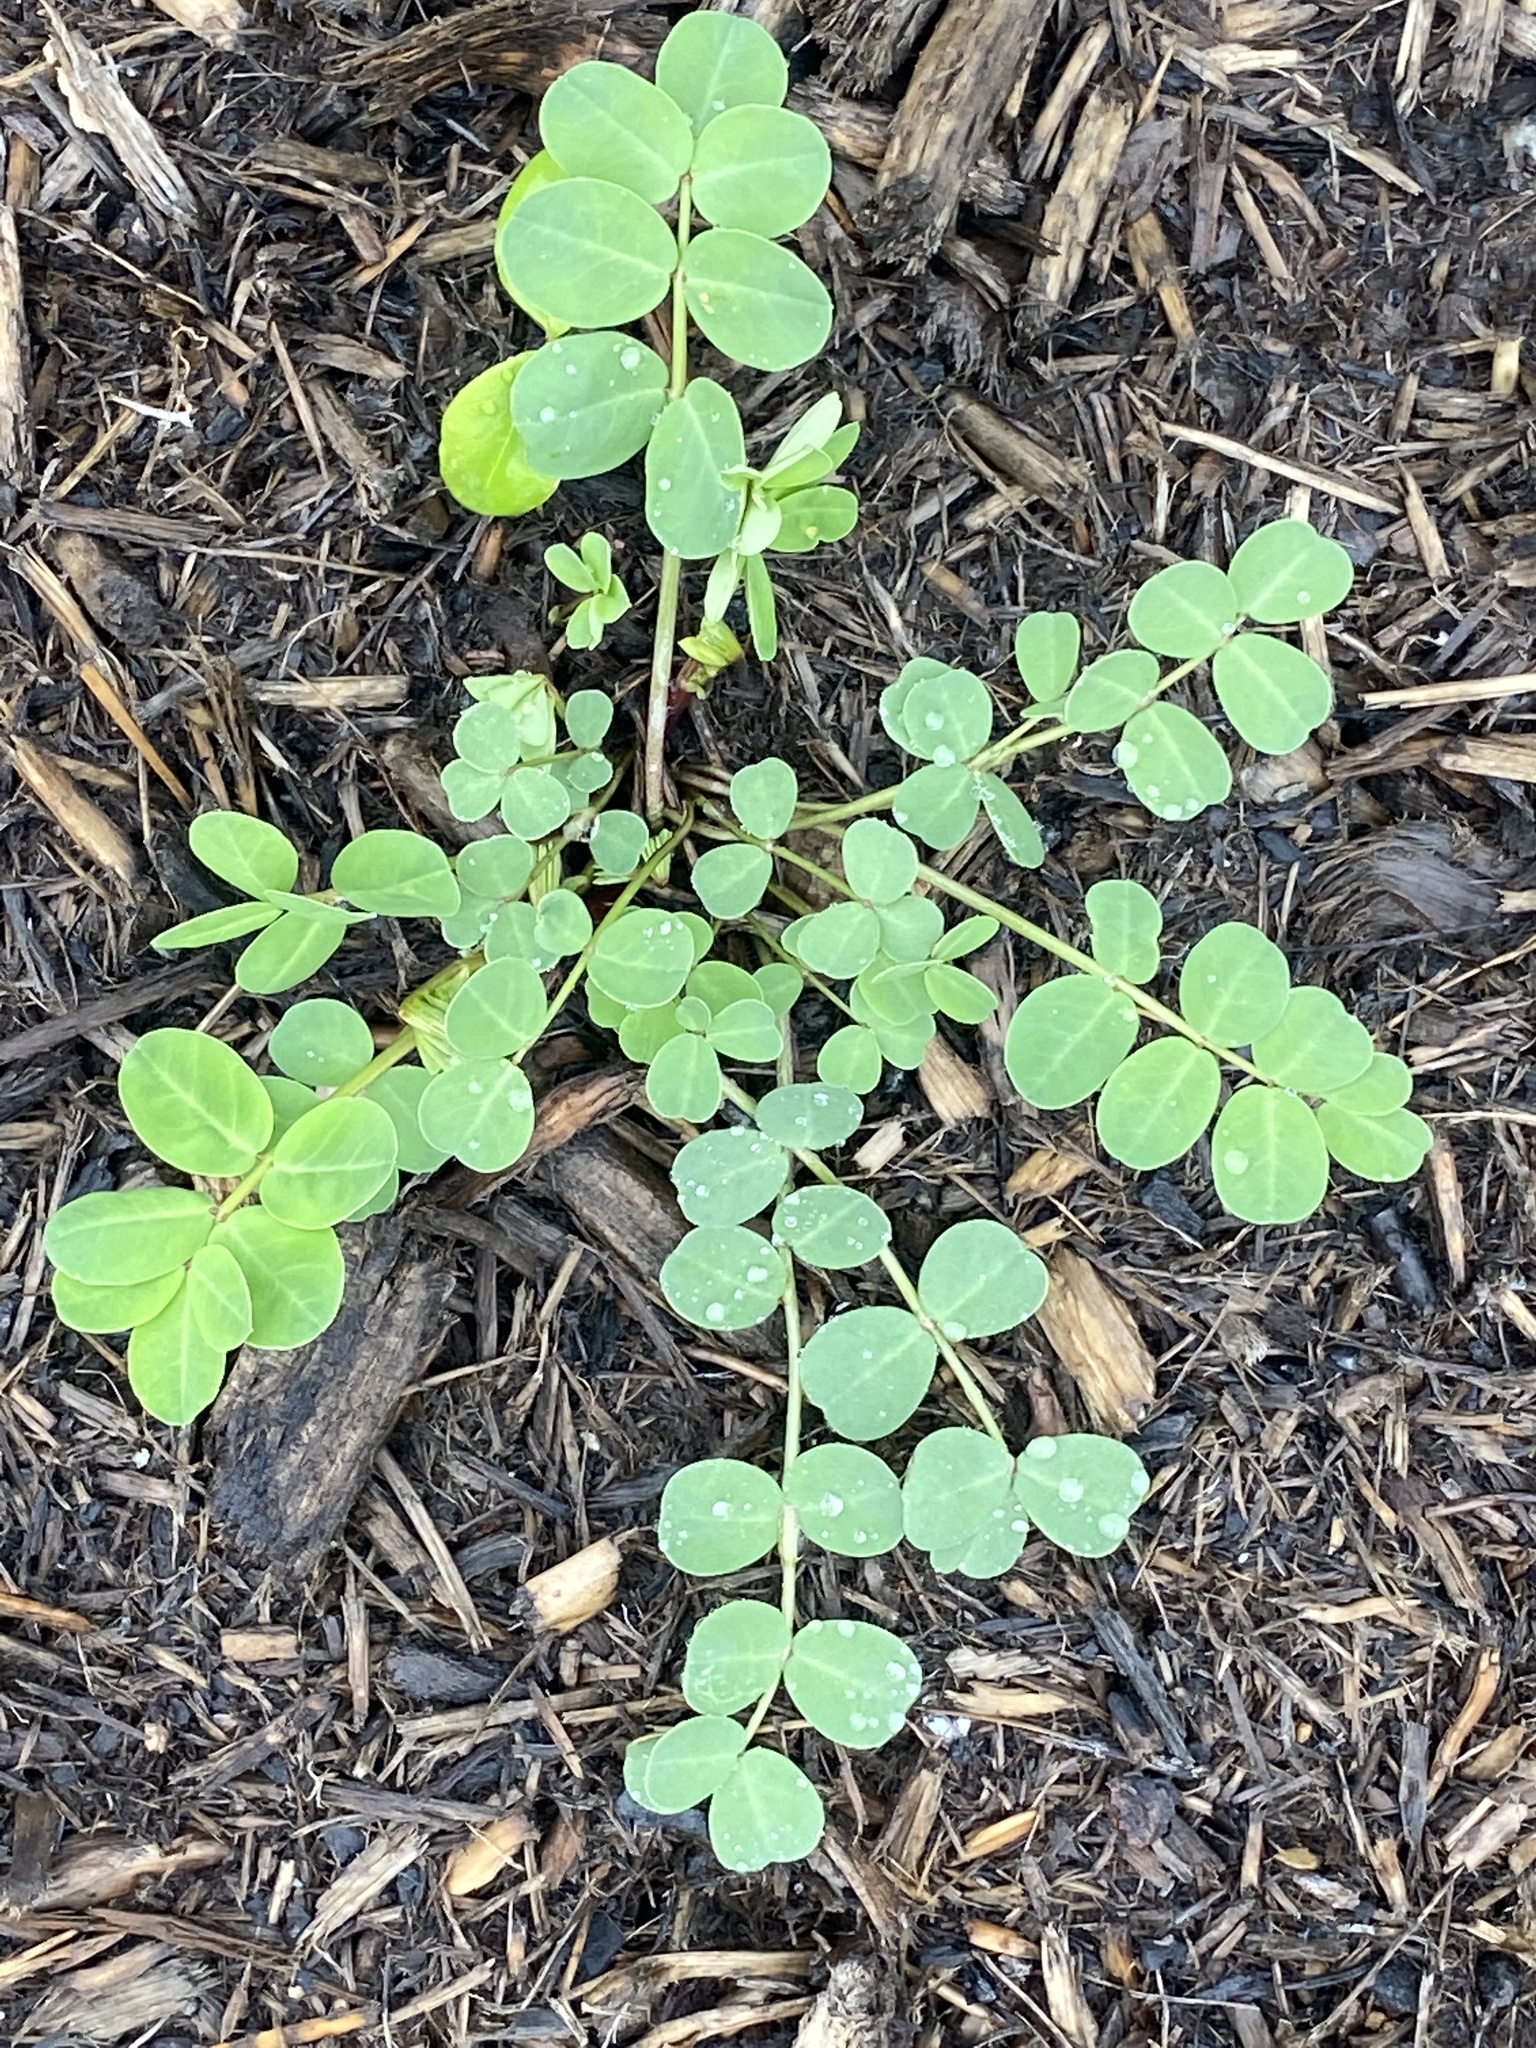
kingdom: Plantae
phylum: Tracheophyta
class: Magnoliopsida
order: Fabales
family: Fabaceae
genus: Coronilla
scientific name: Coronilla varia
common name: Crownvetch
